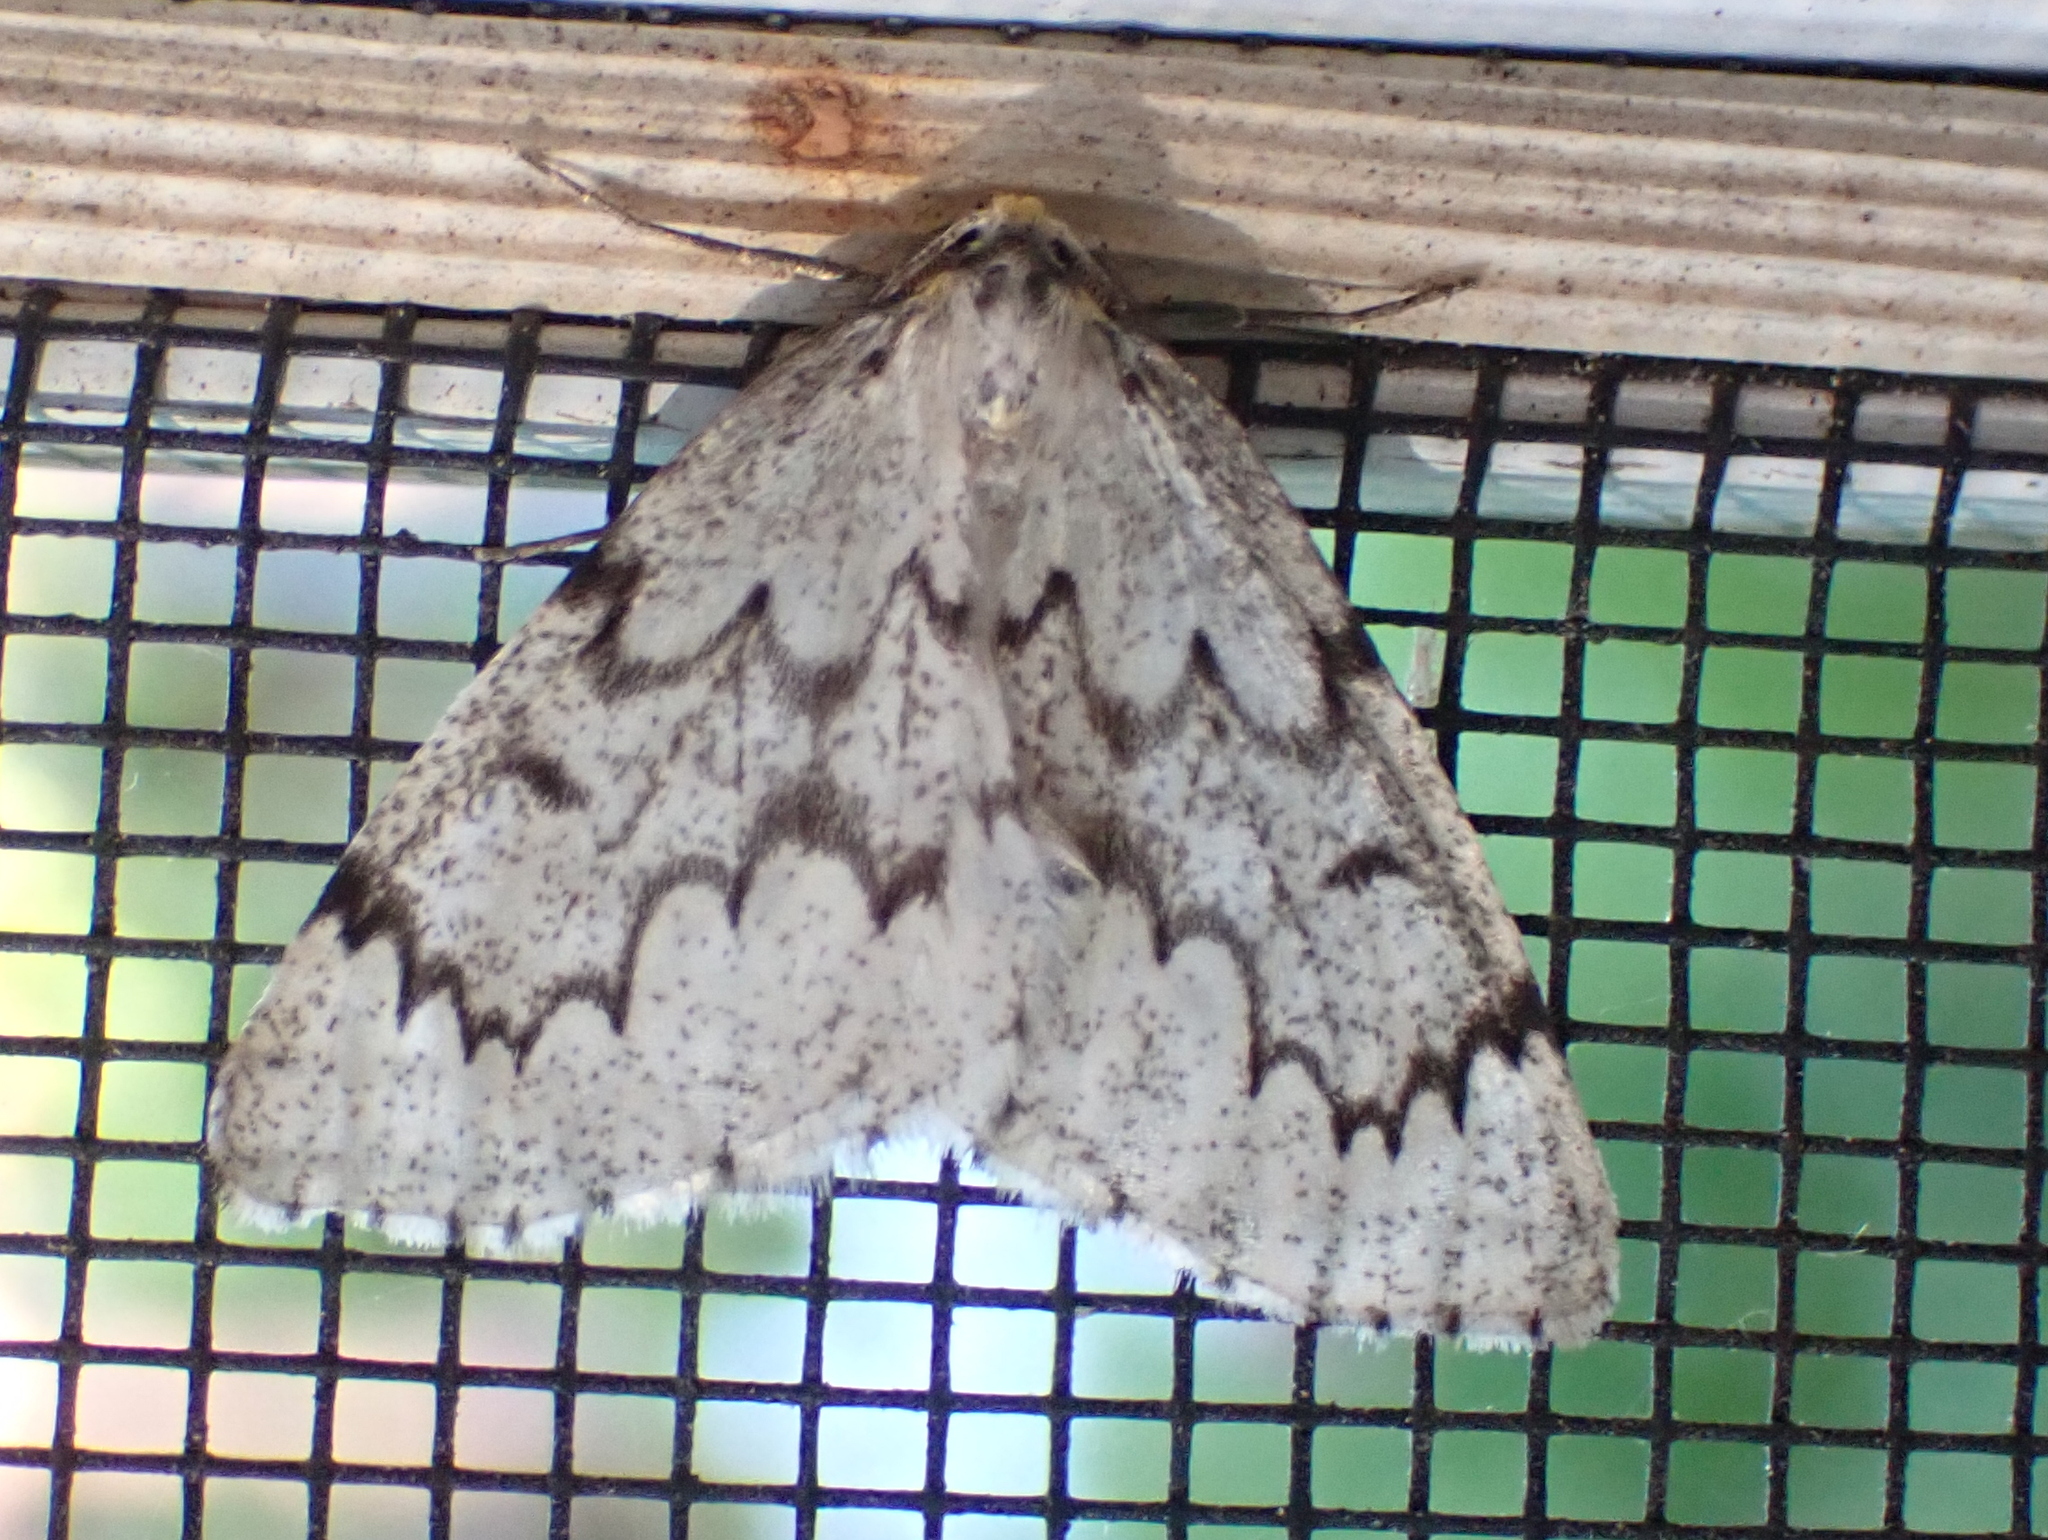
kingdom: Animalia
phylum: Arthropoda
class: Insecta
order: Lepidoptera
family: Geometridae
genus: Nepytia
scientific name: Nepytia canosaria
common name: False hemlock looper
